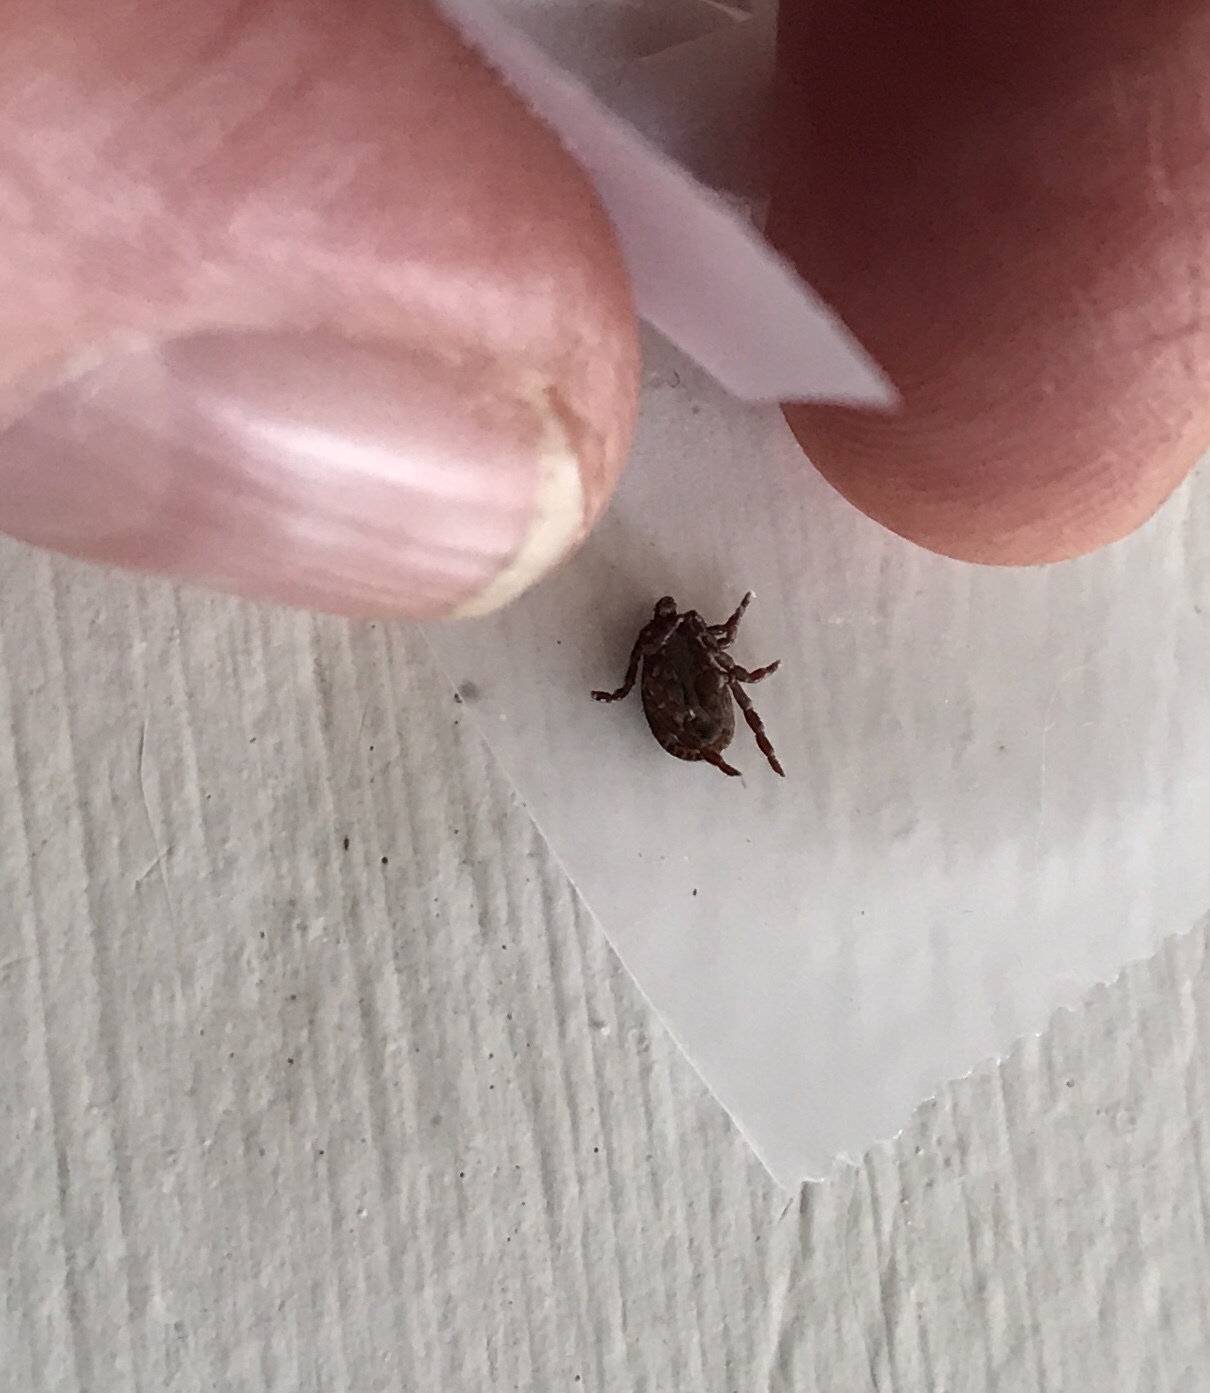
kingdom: Animalia
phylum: Arthropoda
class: Arachnida
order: Ixodida
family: Ixodidae
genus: Dermacentor
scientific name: Dermacentor variabilis
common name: American dog tick
